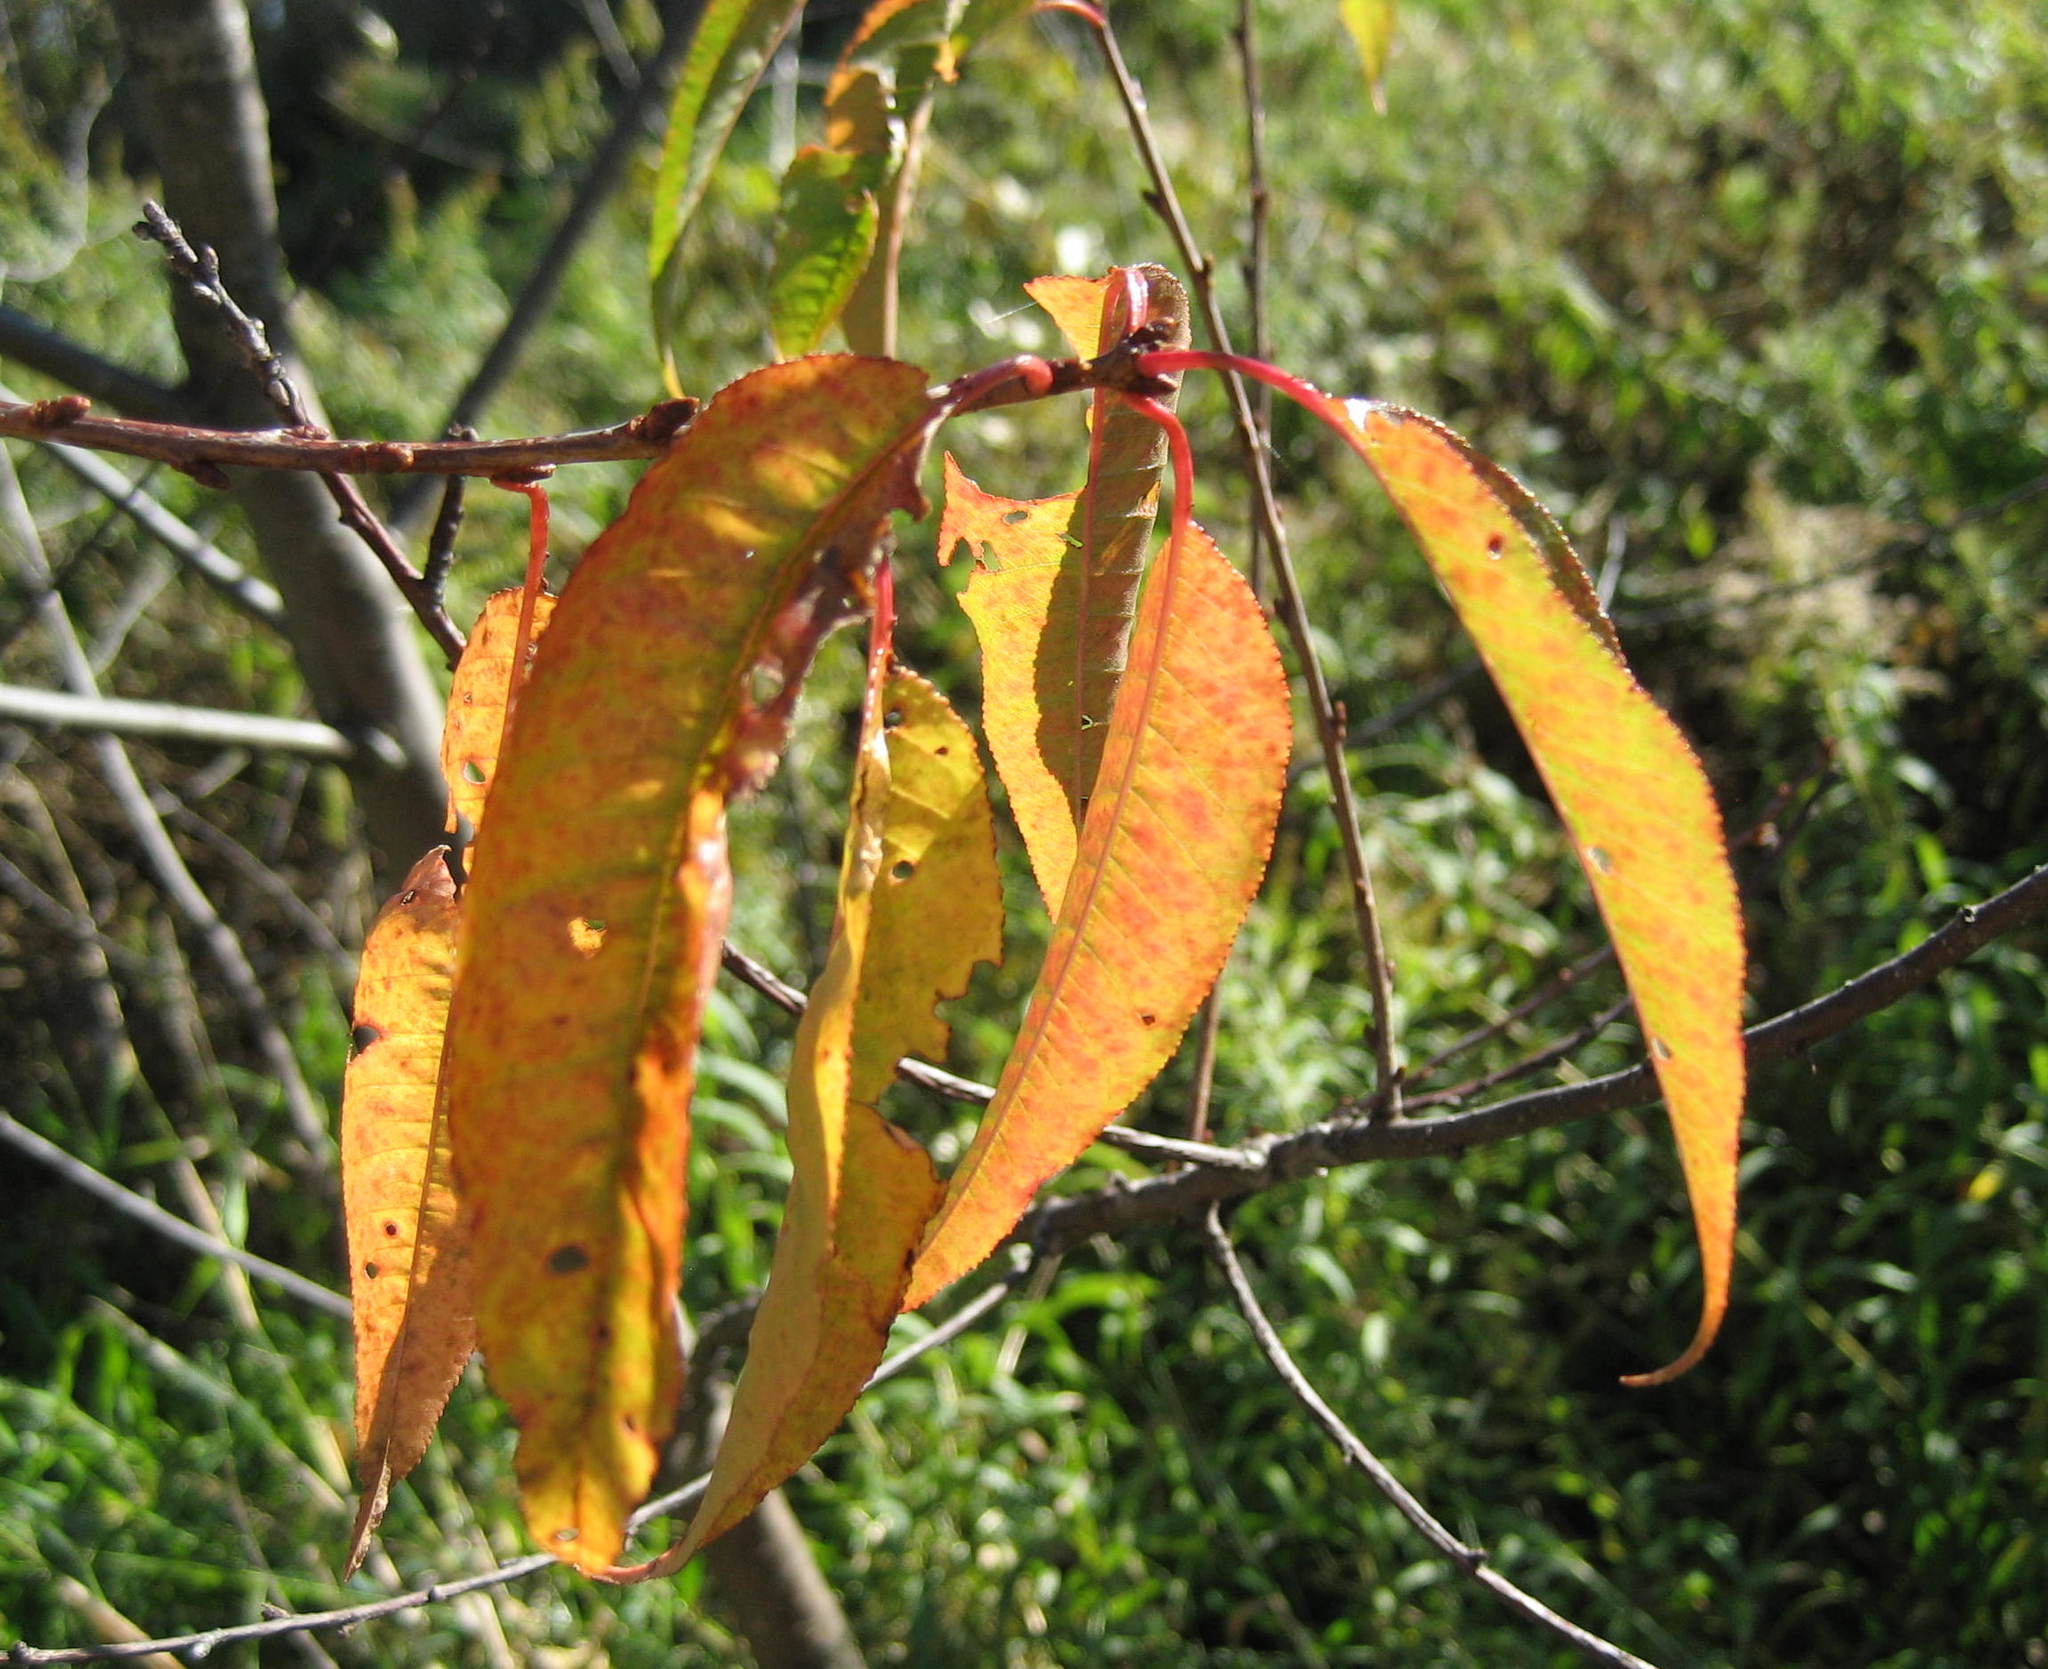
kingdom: Plantae
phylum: Tracheophyta
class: Magnoliopsida
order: Rosales
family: Rosaceae
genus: Prunus
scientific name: Prunus pensylvanica
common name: Pin cherry
